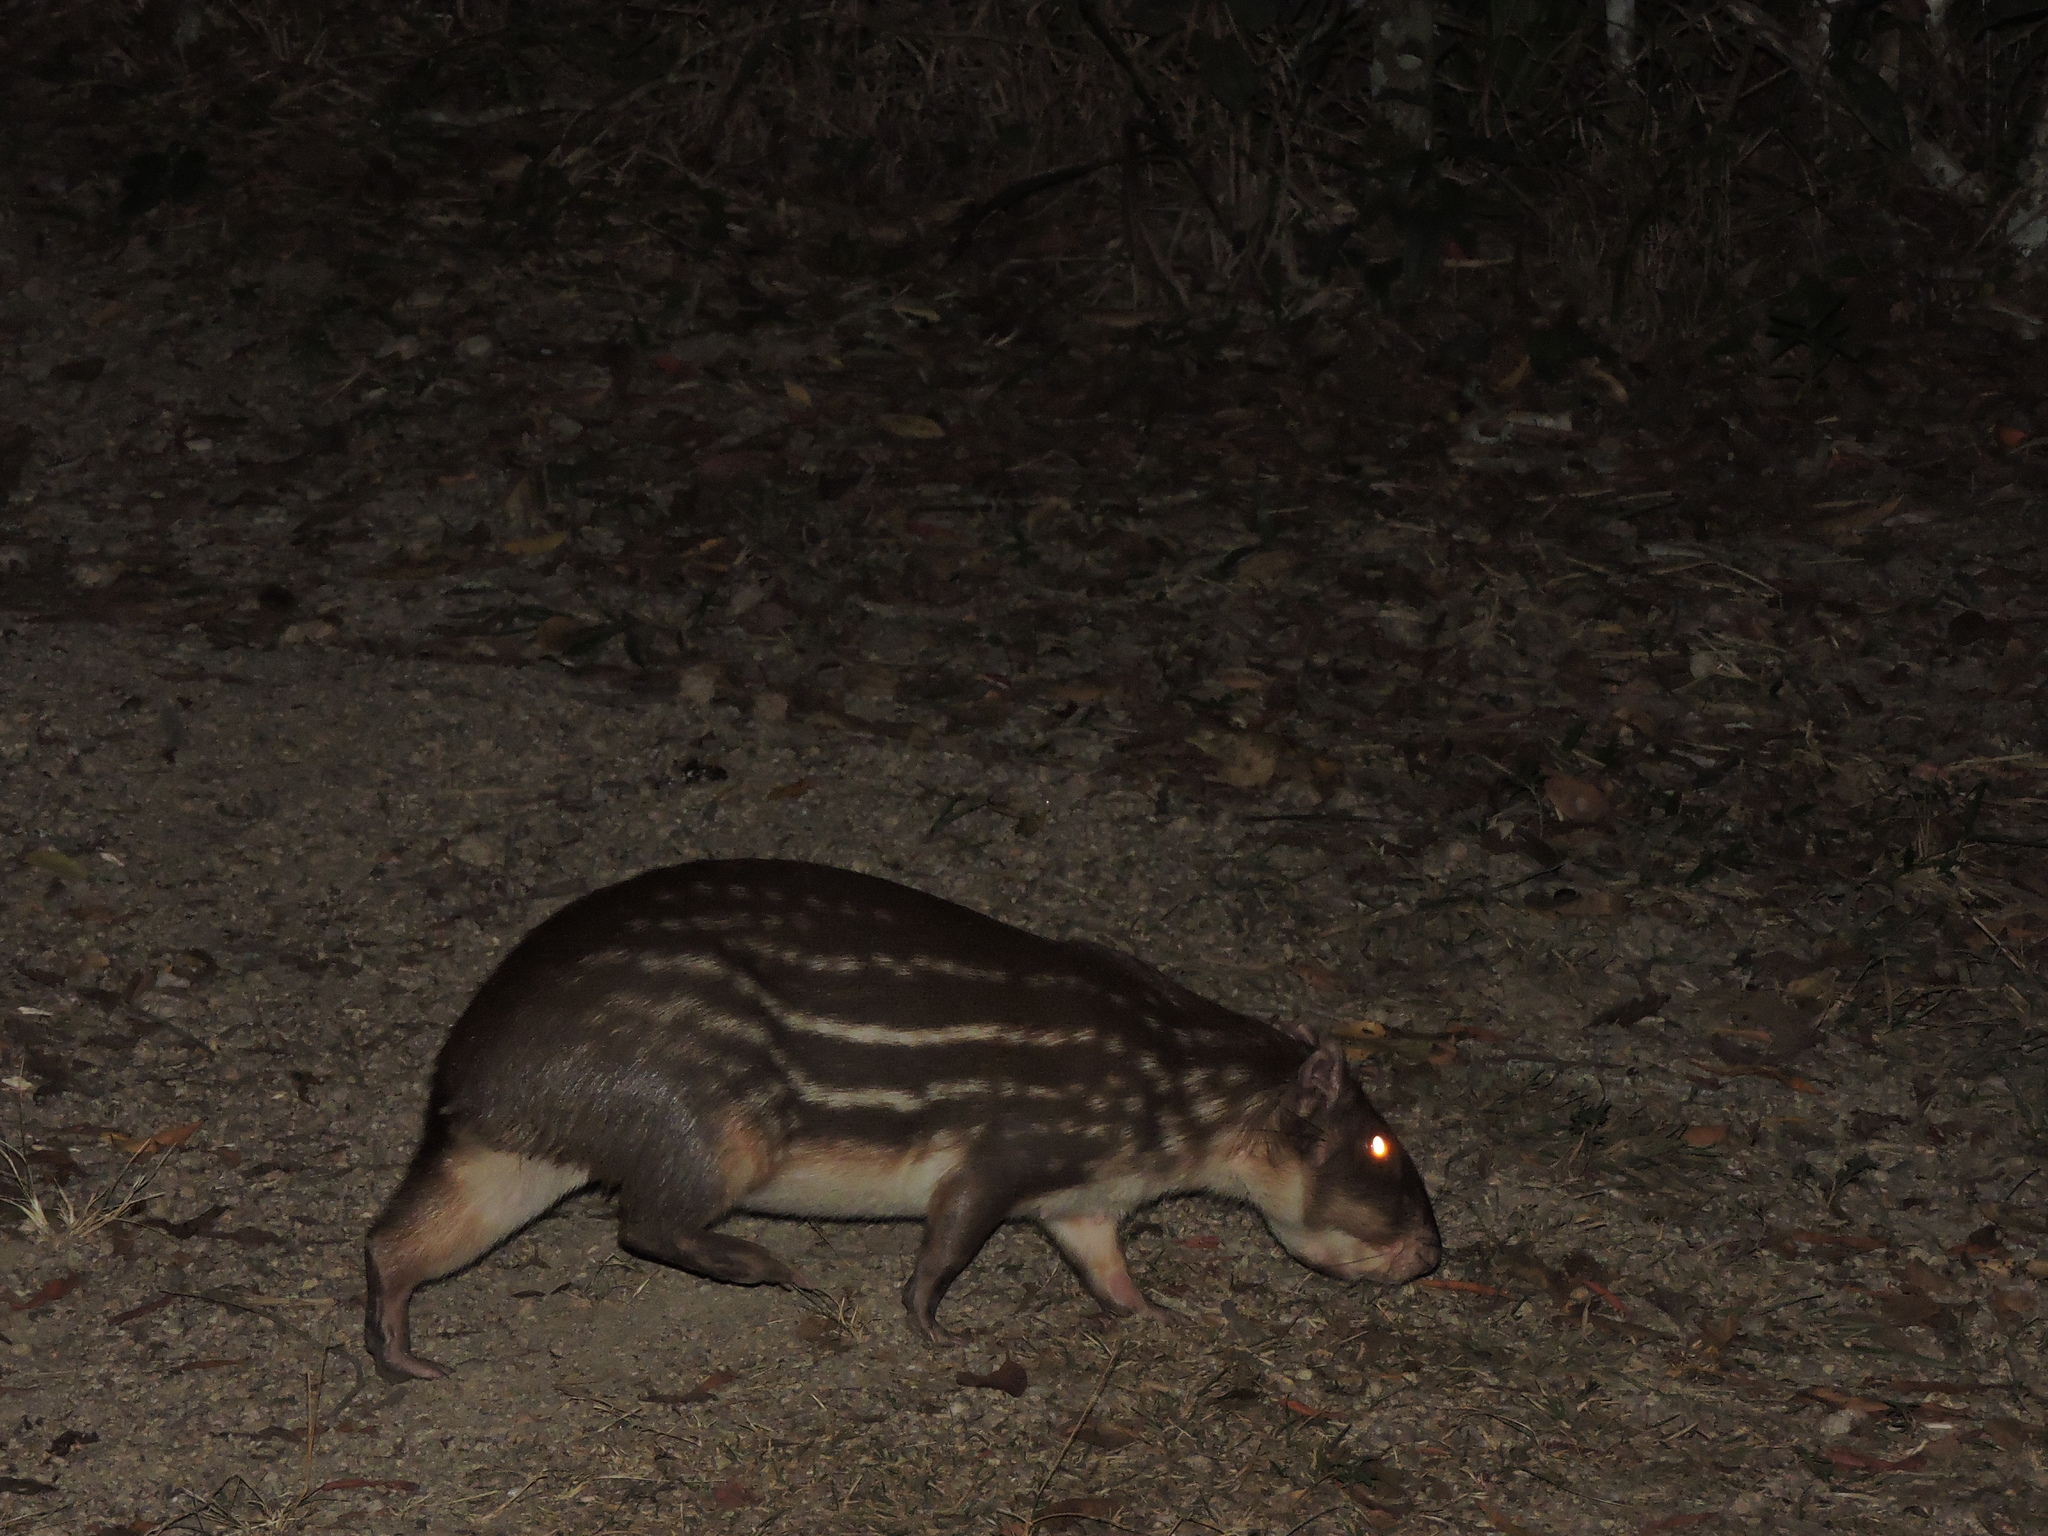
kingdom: Animalia
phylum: Chordata
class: Mammalia
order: Rodentia
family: Cuniculidae
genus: Cuniculus
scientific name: Cuniculus paca
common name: Lowland paca
